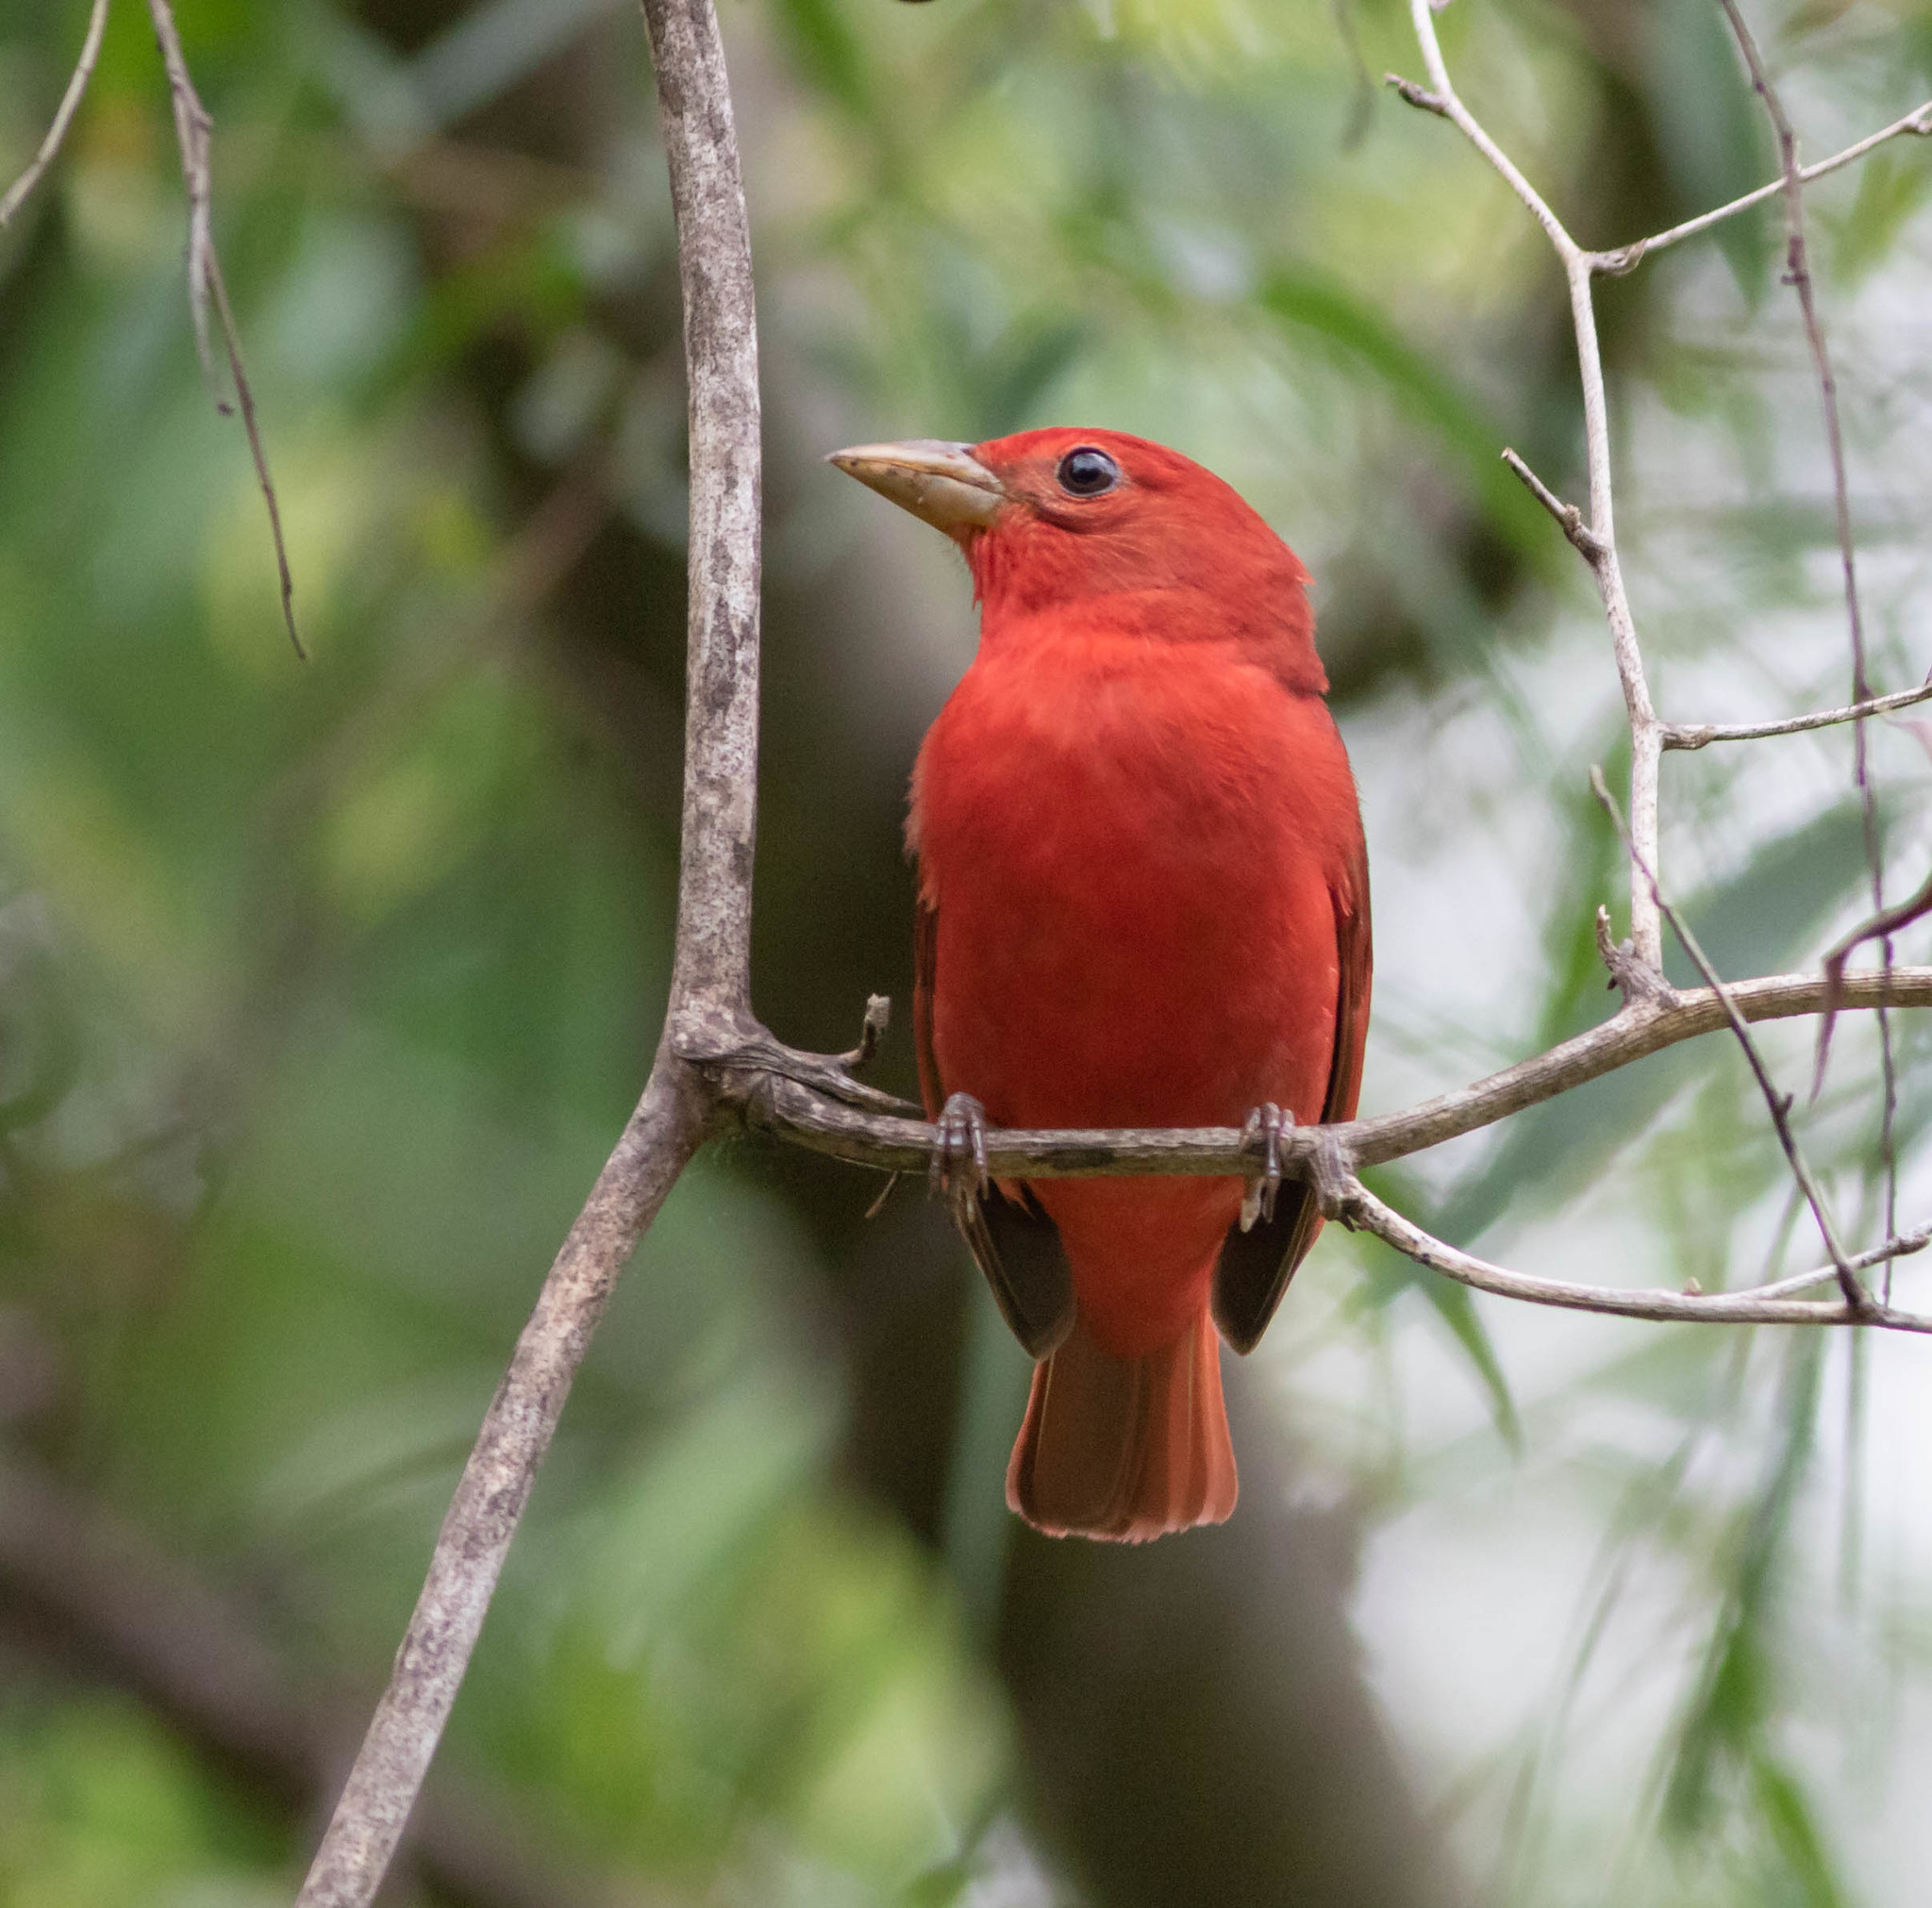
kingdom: Animalia
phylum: Chordata
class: Aves
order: Passeriformes
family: Cardinalidae
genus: Piranga
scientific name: Piranga rubra
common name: Summer tanager
